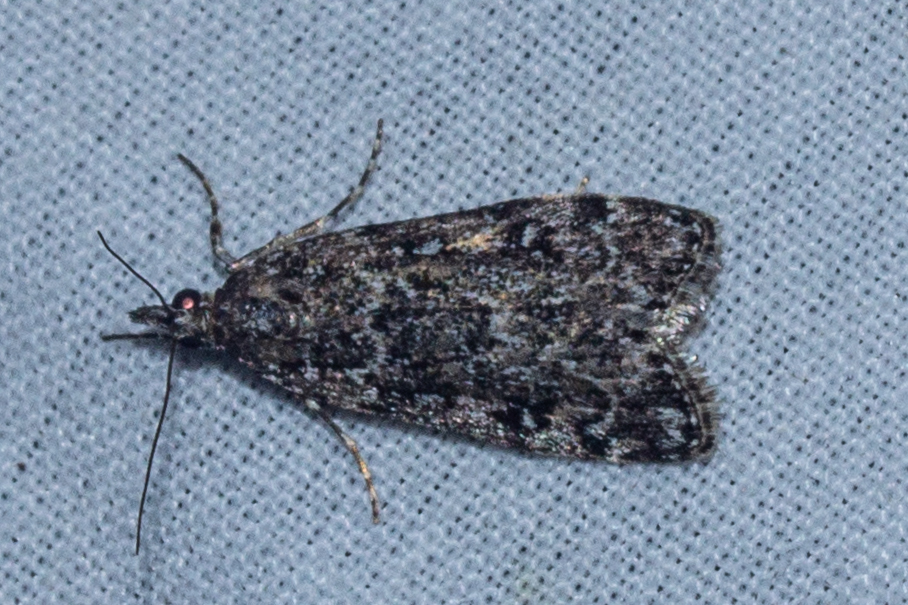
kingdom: Animalia
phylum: Arthropoda
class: Insecta
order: Lepidoptera
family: Crambidae
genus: Eudonia
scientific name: Eudonia philerga
